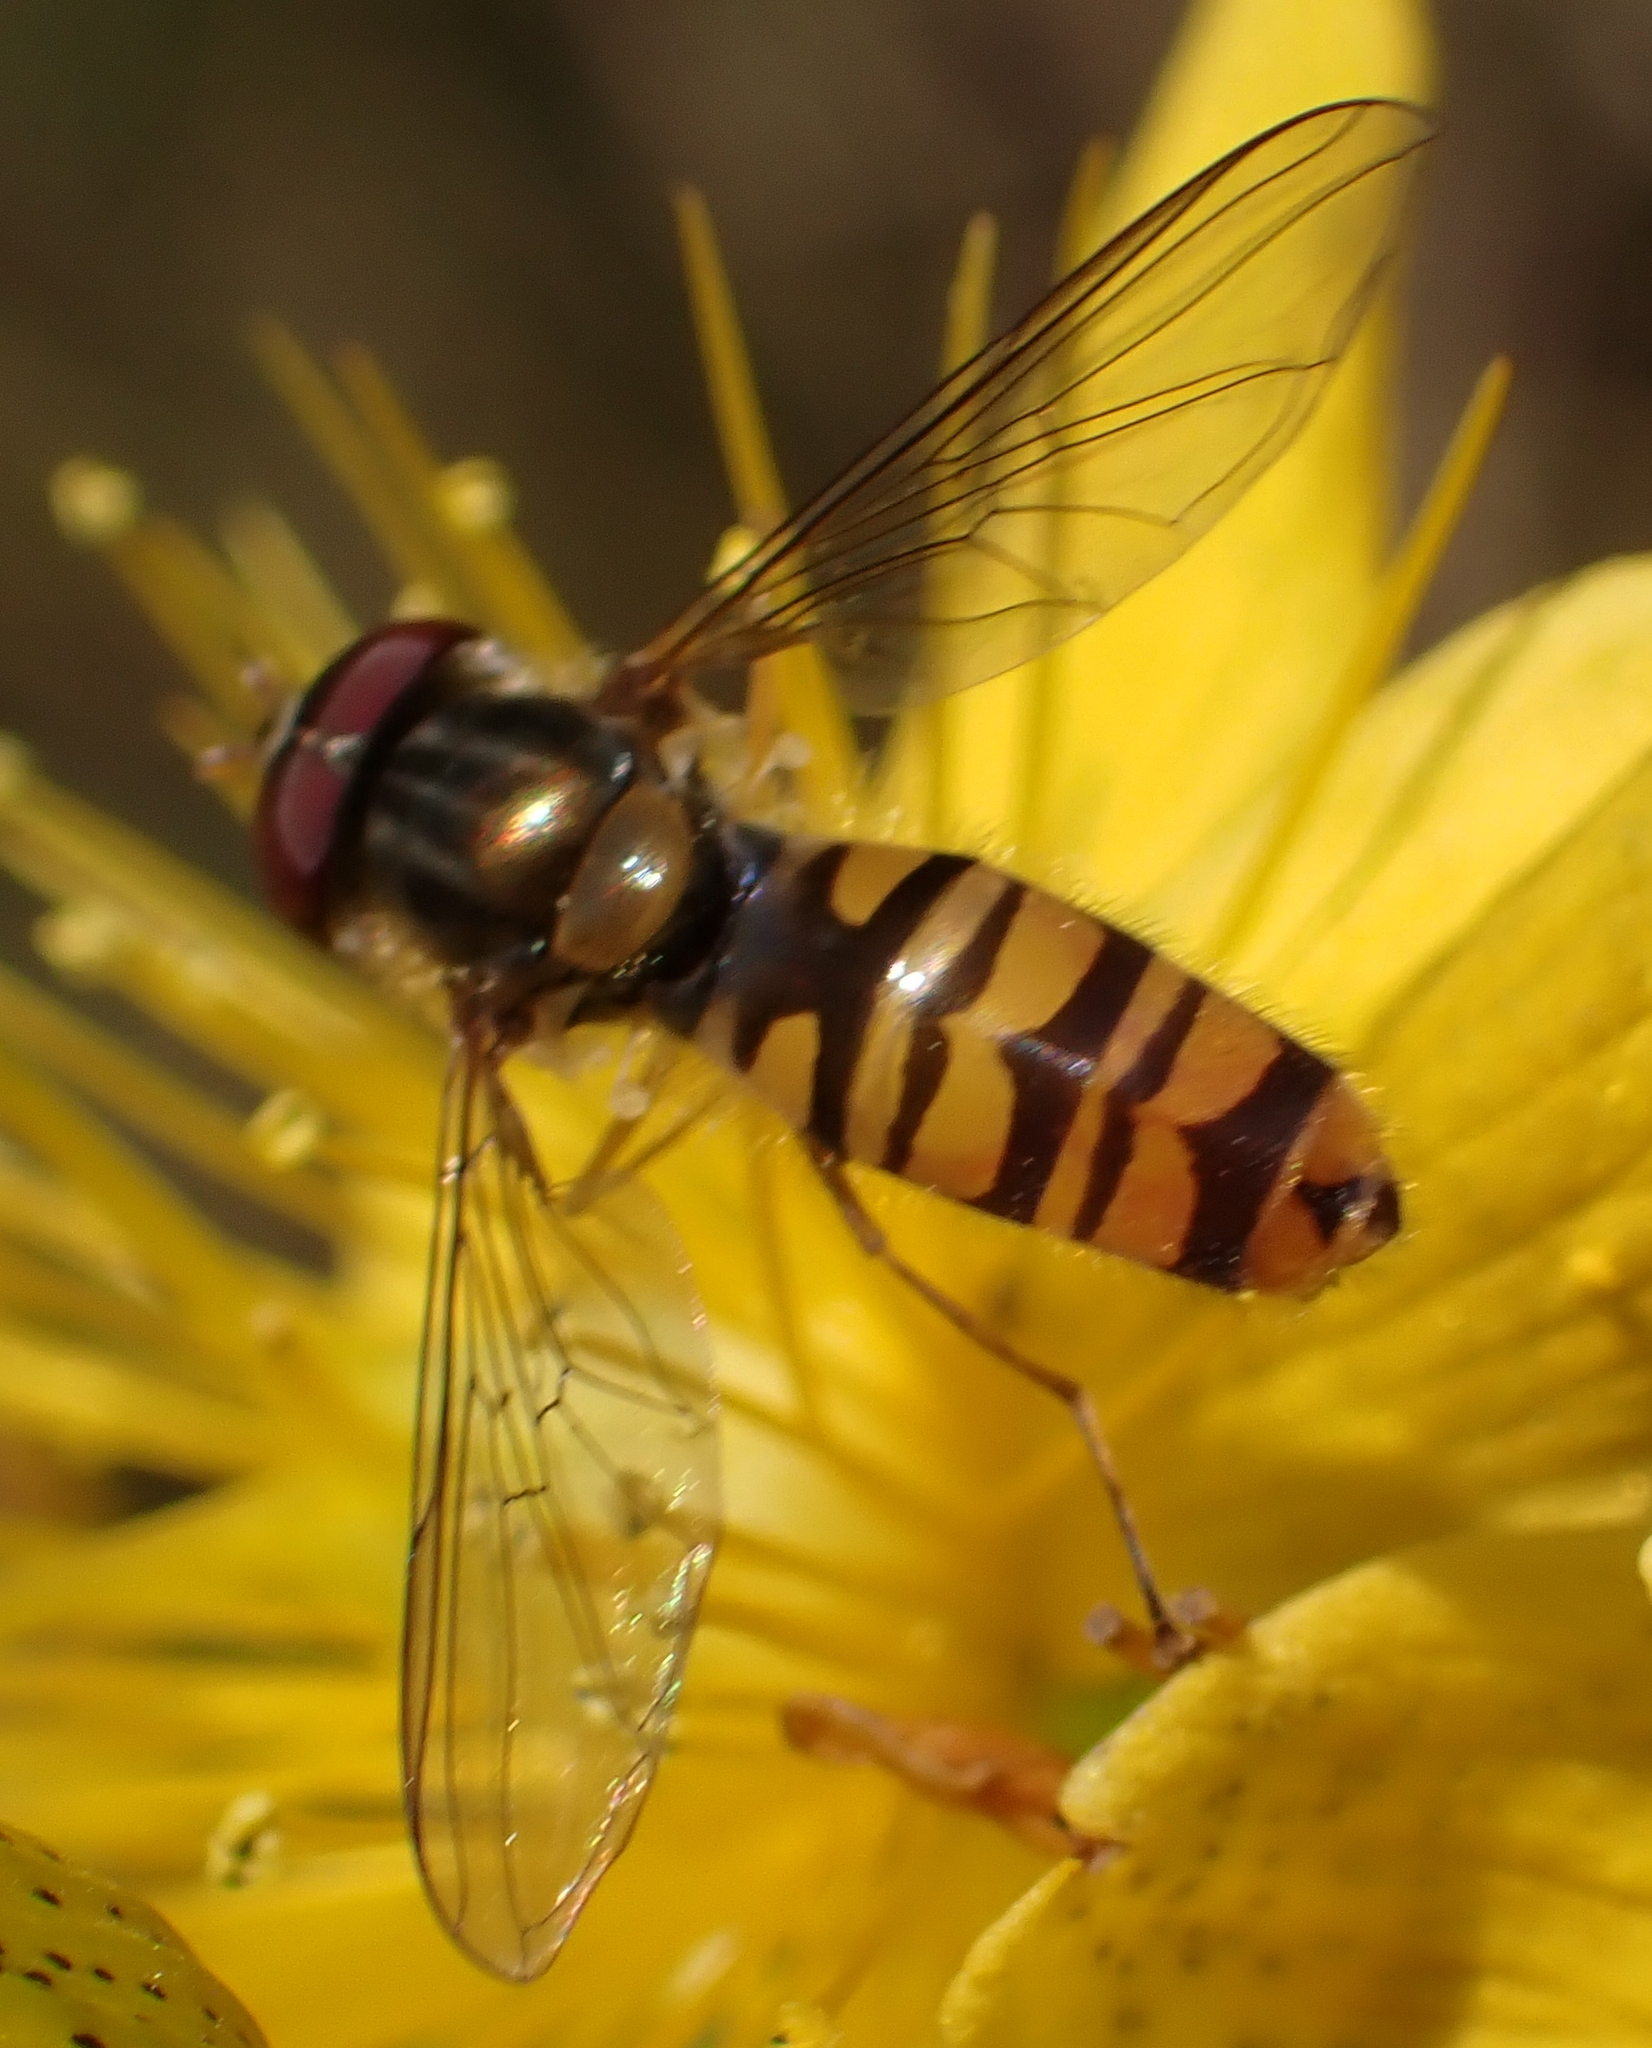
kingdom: Animalia
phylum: Arthropoda
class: Insecta
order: Diptera
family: Syrphidae
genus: Episyrphus
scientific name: Episyrphus balteatus
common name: Marmalade hoverfly
